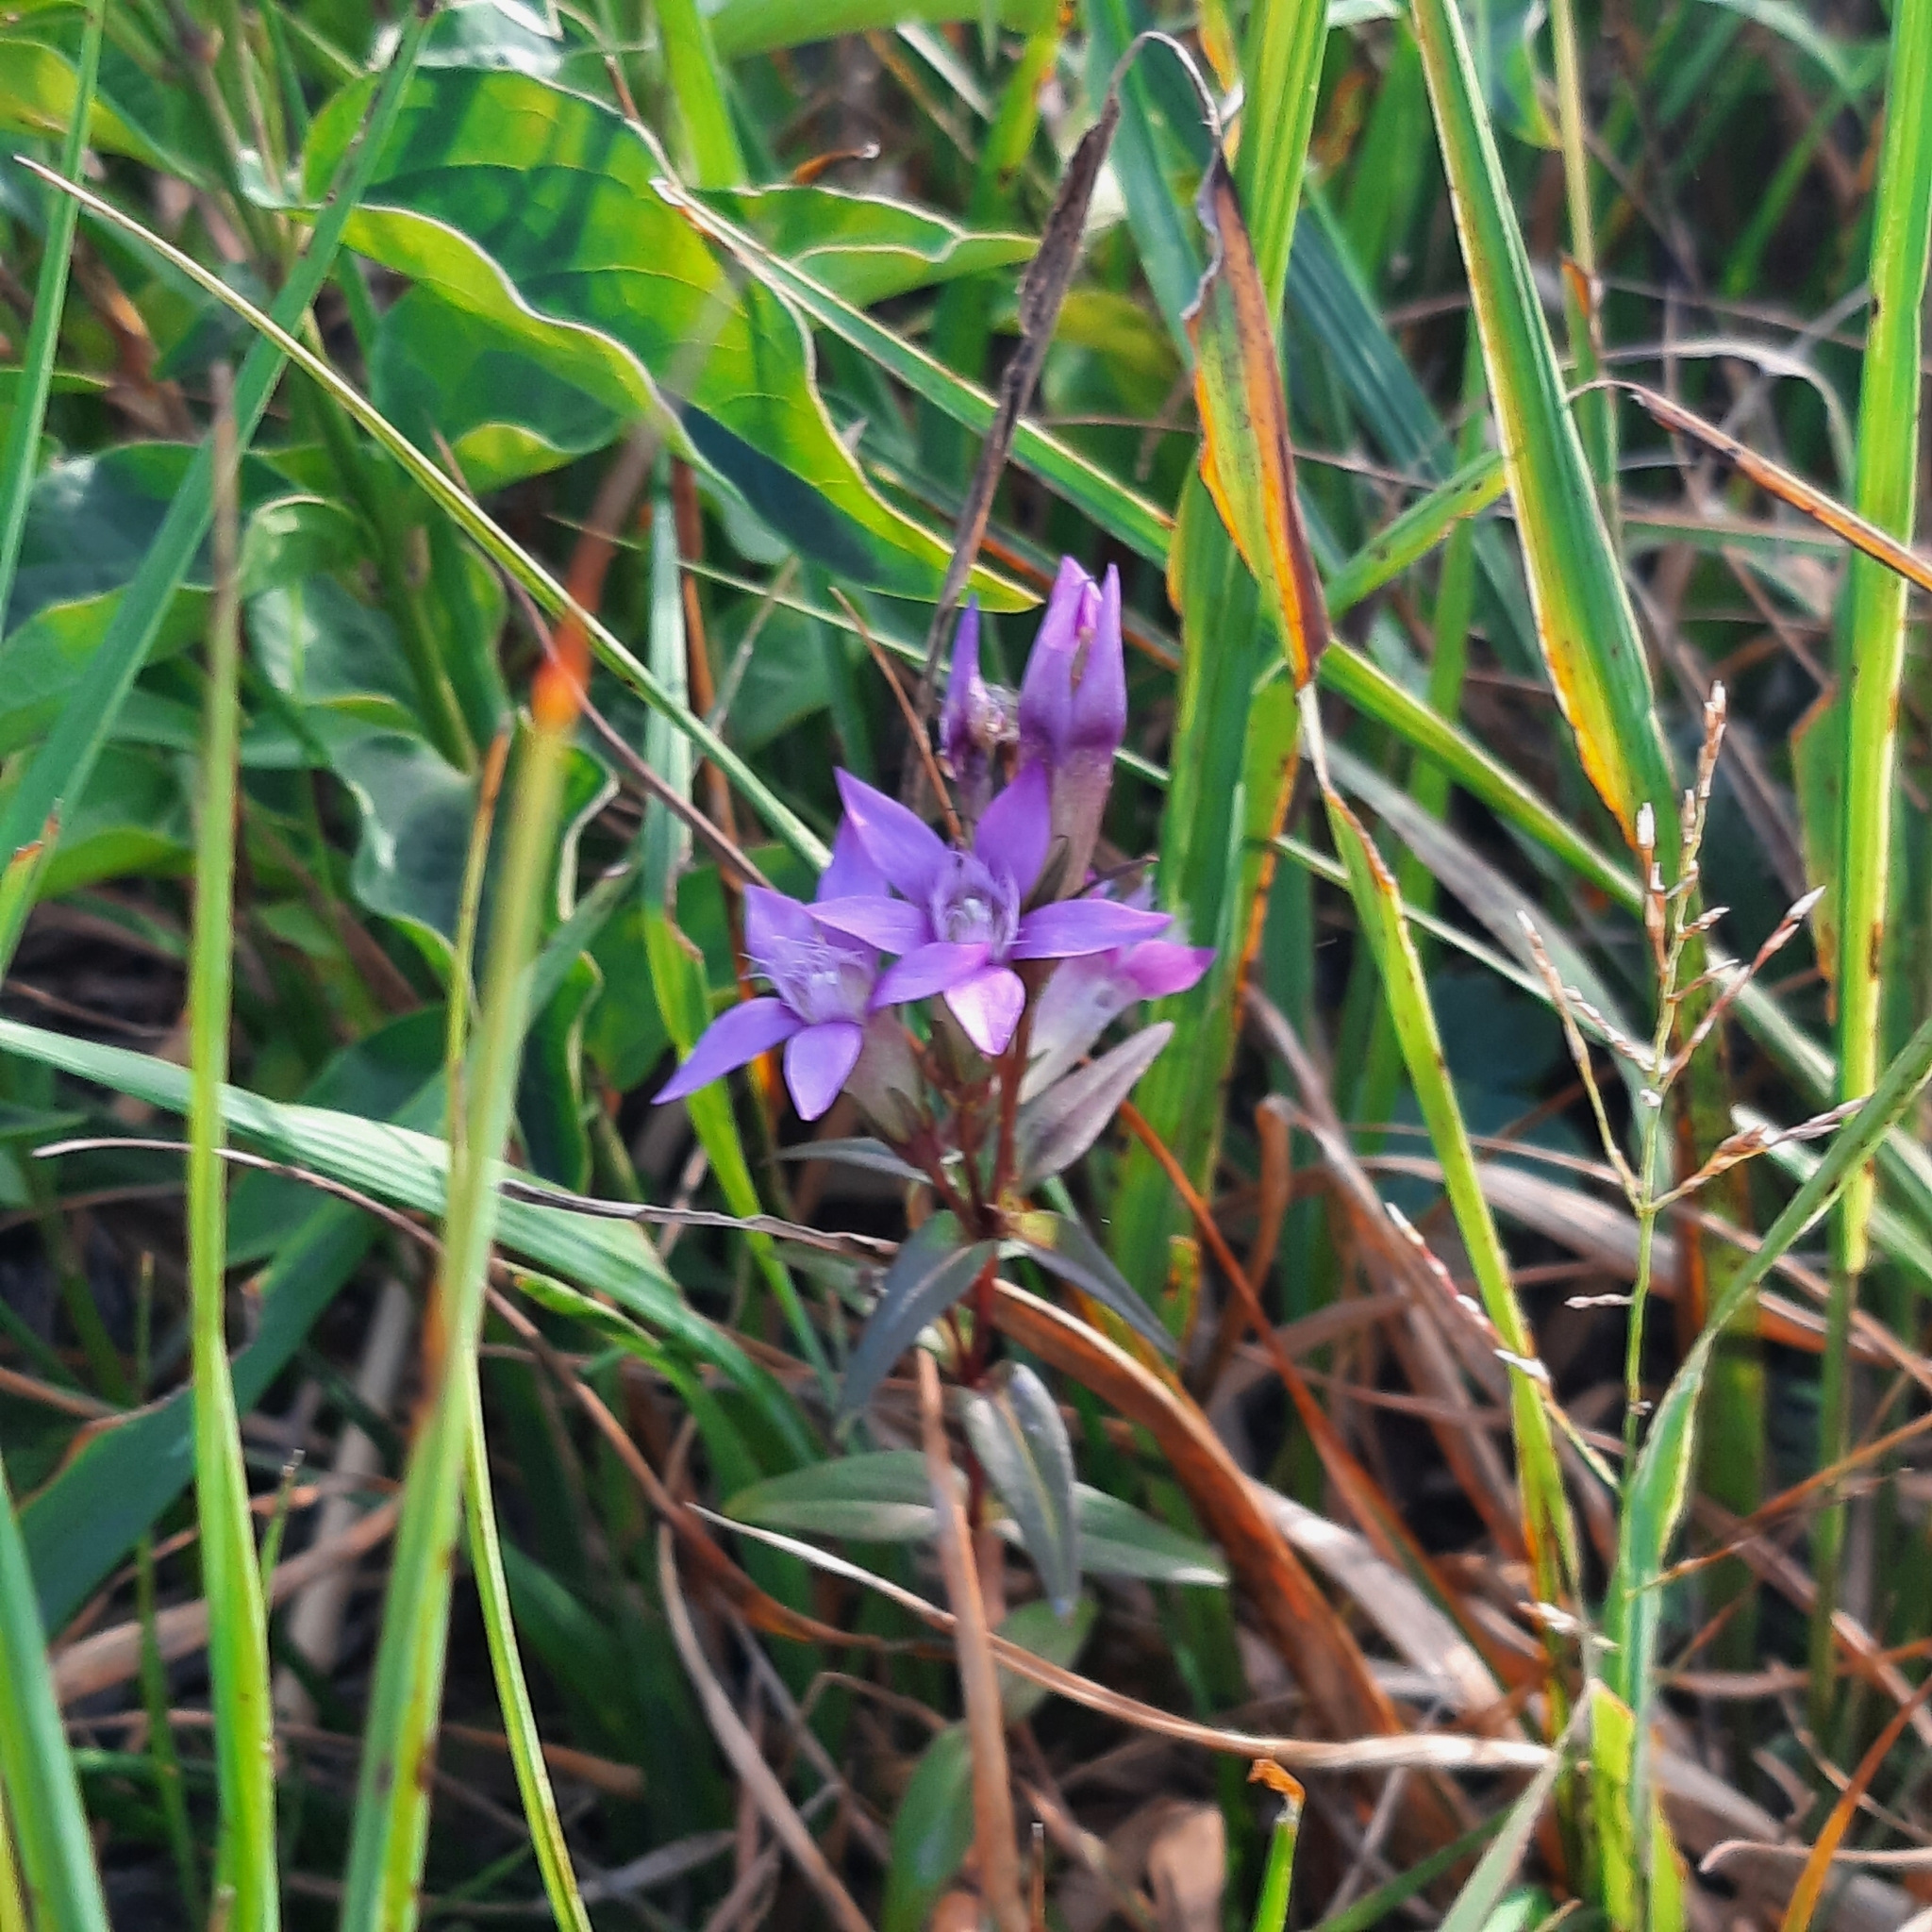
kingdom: Plantae
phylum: Tracheophyta
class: Magnoliopsida
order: Gentianales
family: Gentianaceae
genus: Gentianella
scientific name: Gentianella germanica
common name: Chiltern-gentian
